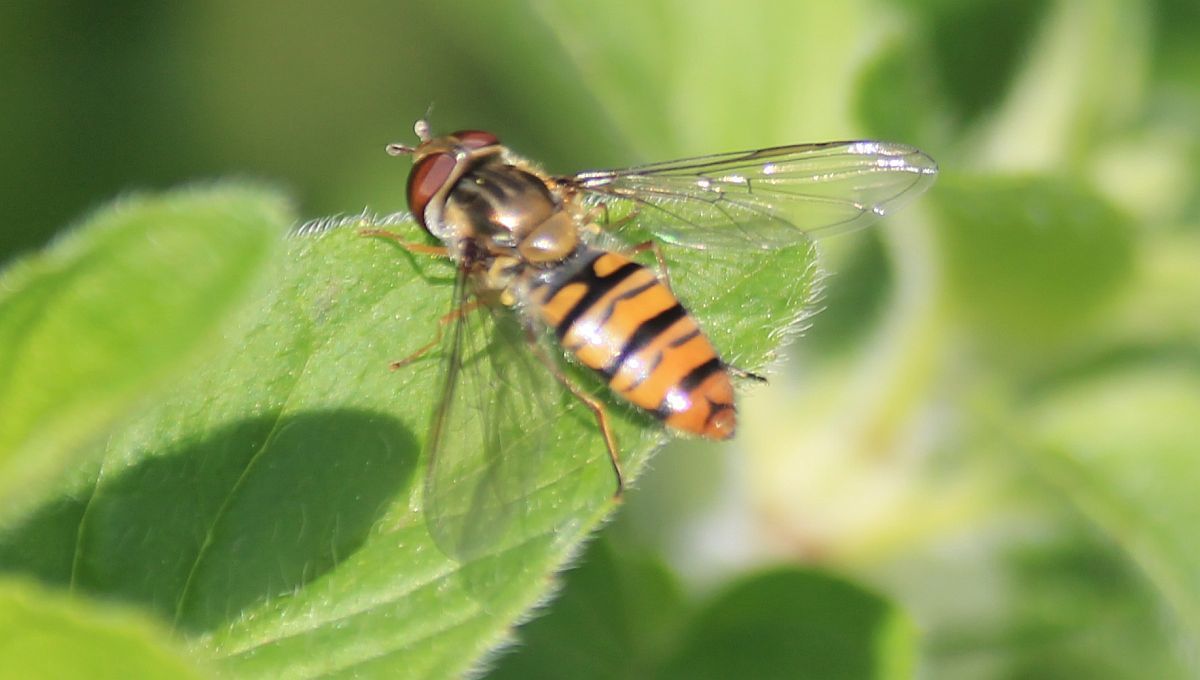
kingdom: Animalia
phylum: Arthropoda
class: Insecta
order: Diptera
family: Syrphidae
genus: Episyrphus
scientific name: Episyrphus balteatus
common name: Marmalade hoverfly
